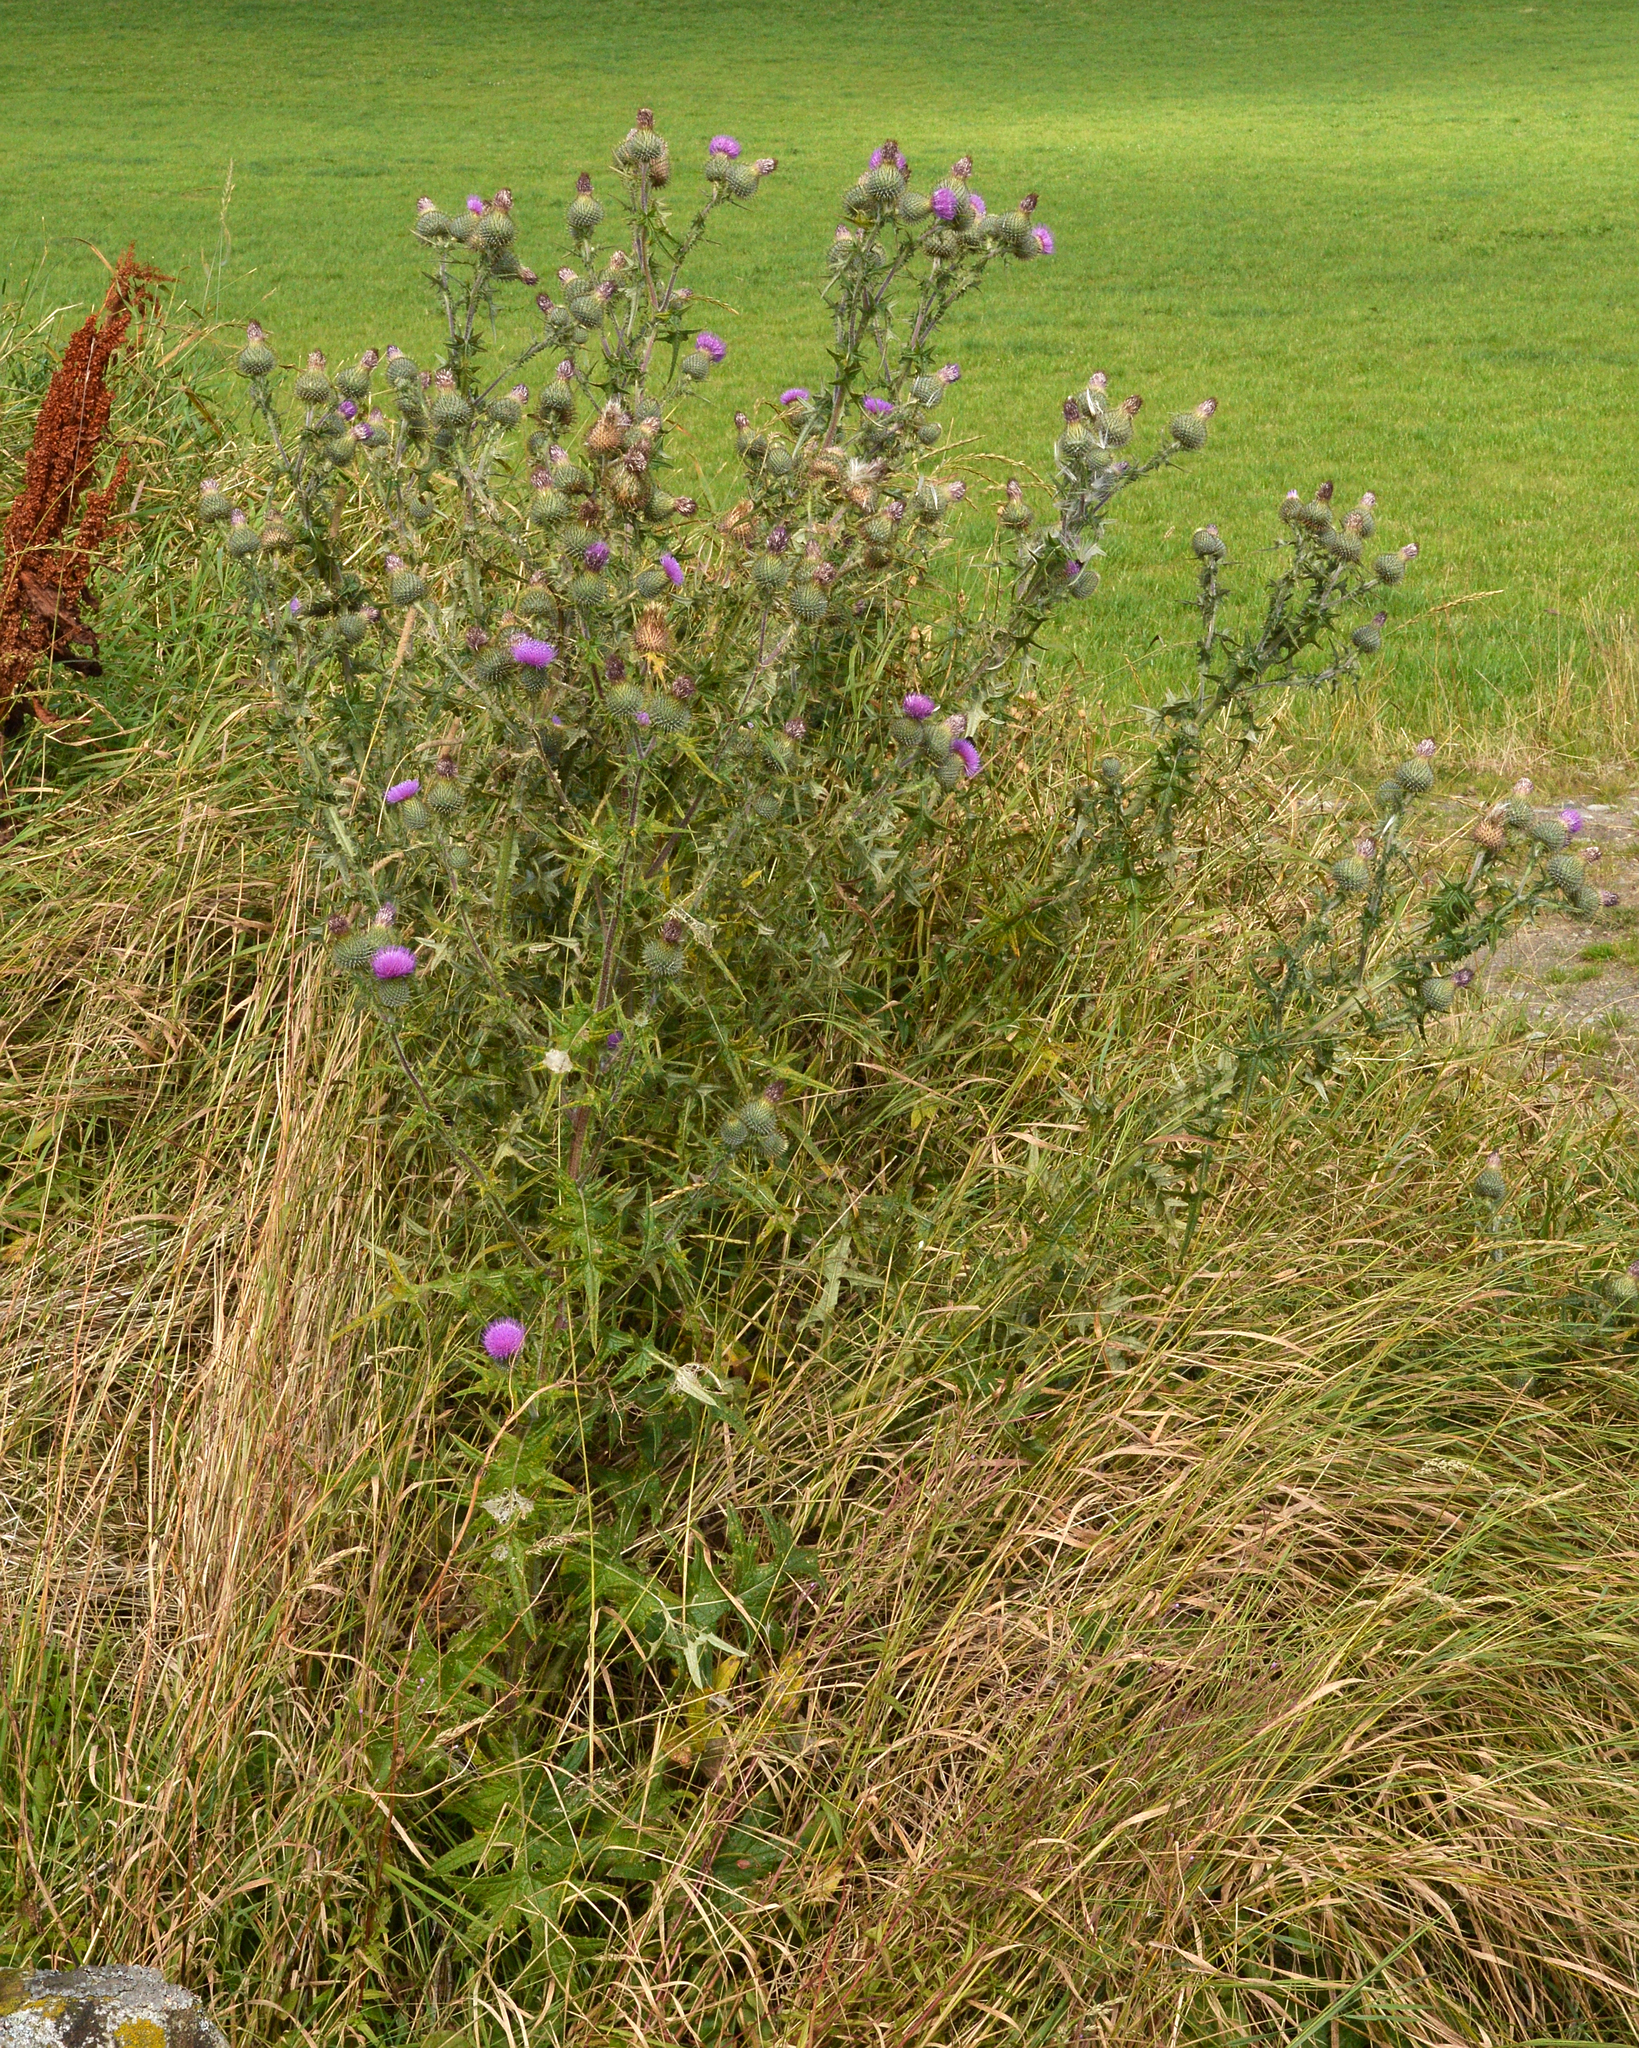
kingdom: Plantae
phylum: Tracheophyta
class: Magnoliopsida
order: Asterales
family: Asteraceae
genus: Cirsium
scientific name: Cirsium vulgare
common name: Bull thistle
